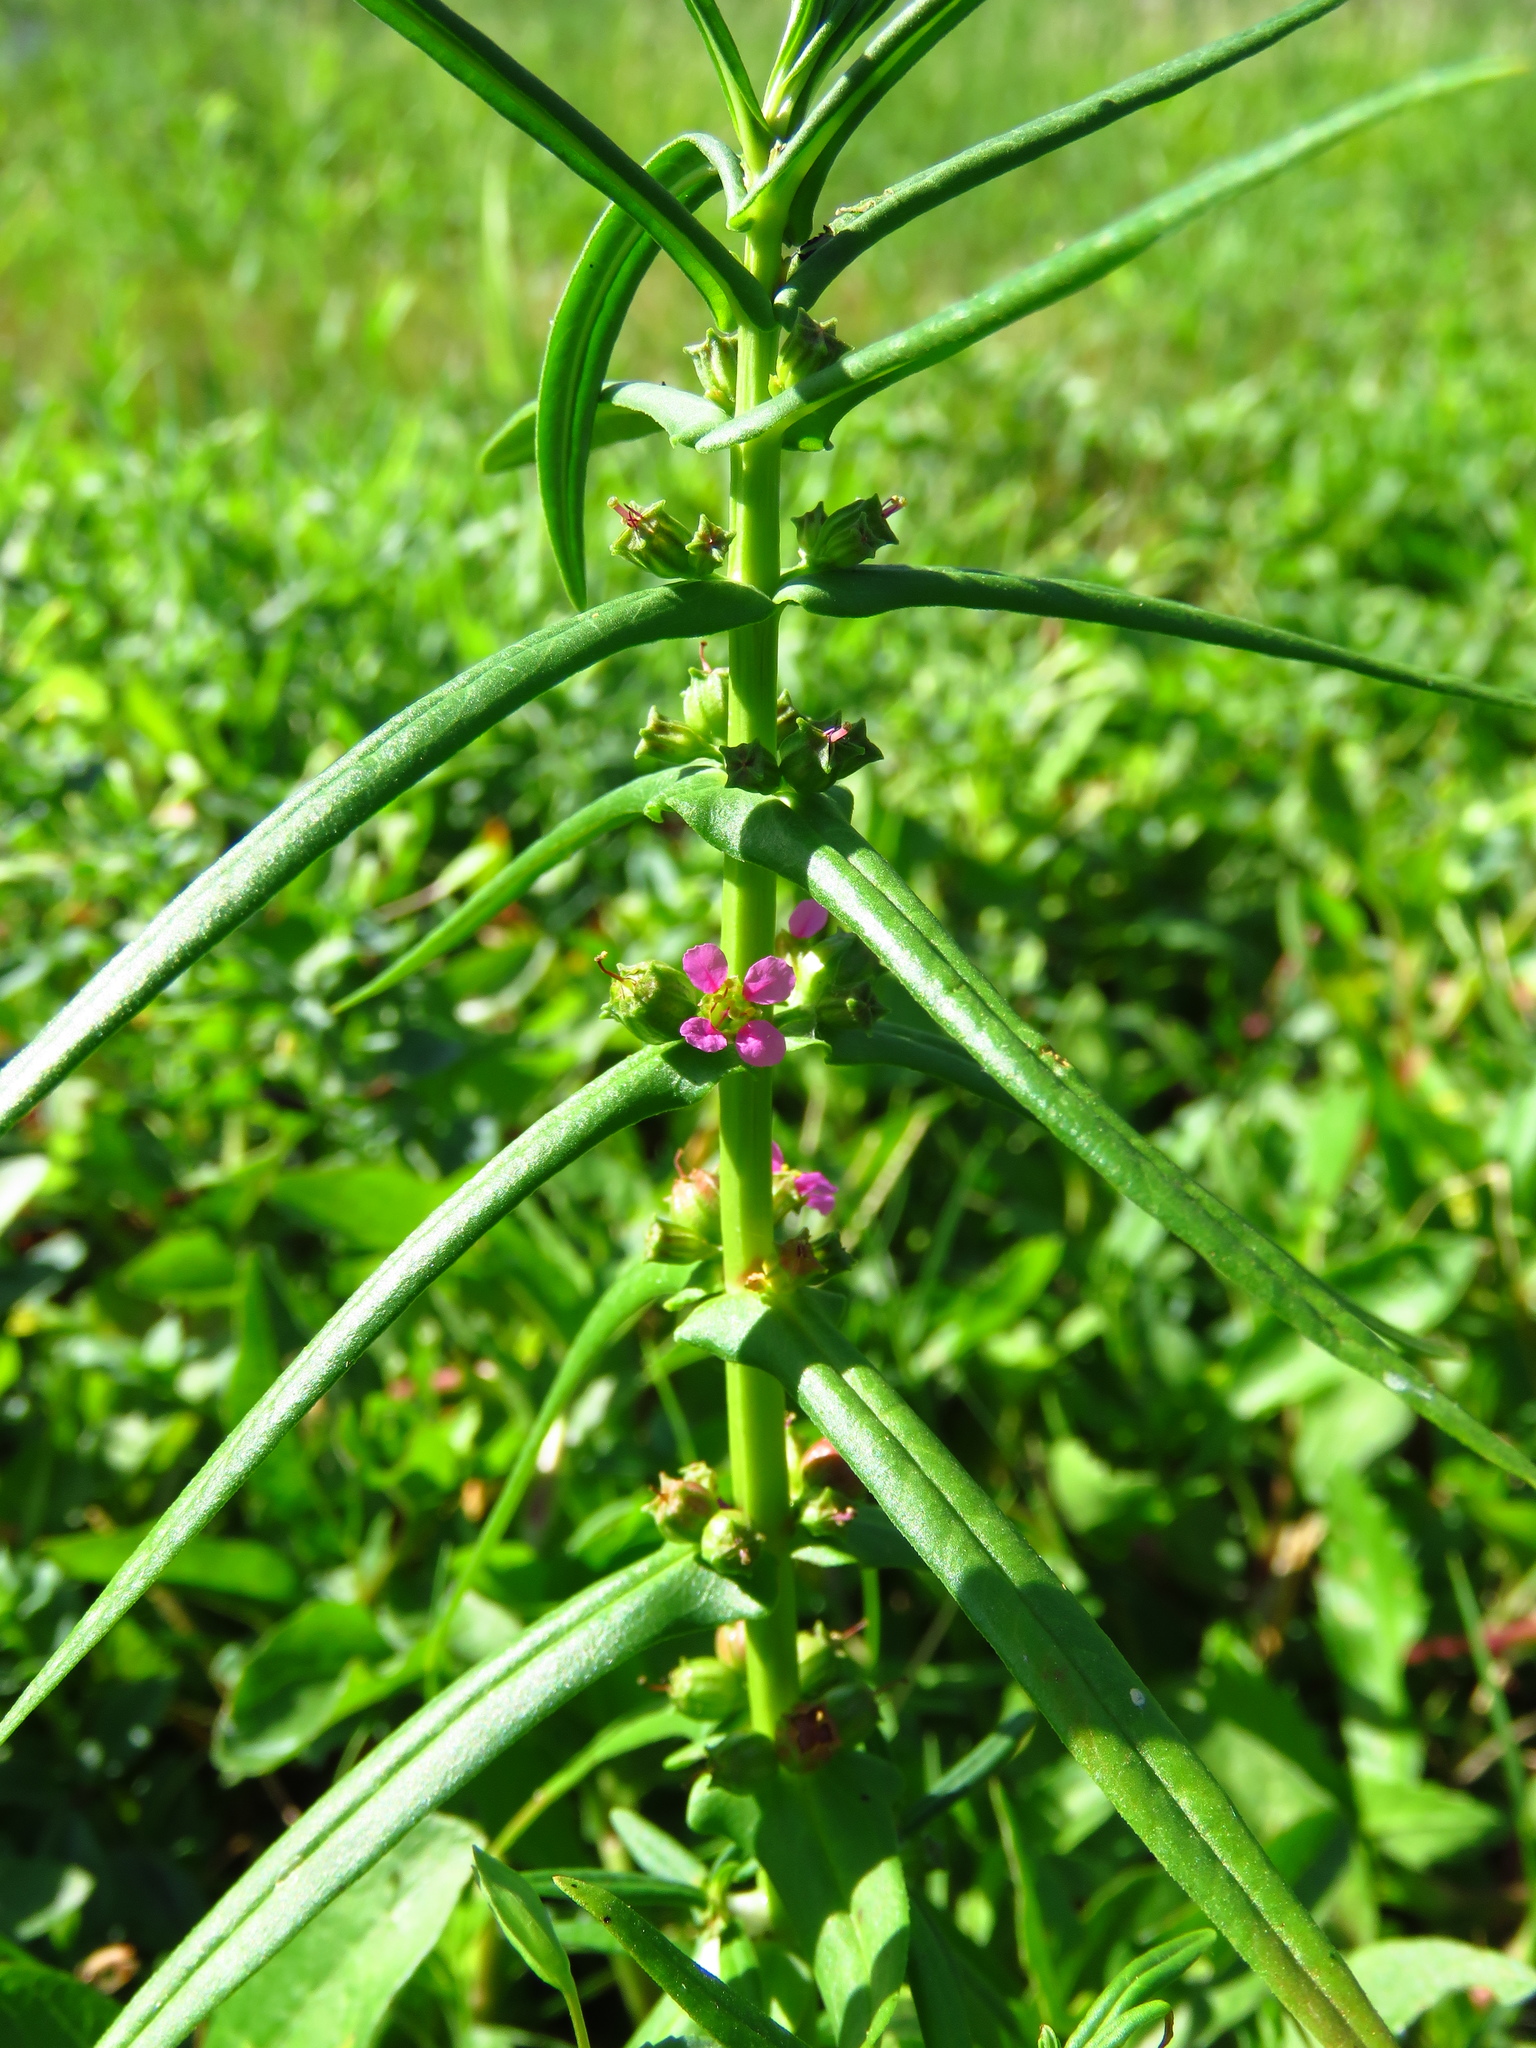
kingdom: Plantae
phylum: Tracheophyta
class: Magnoliopsida
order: Myrtales
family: Lythraceae
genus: Ammannia
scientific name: Ammannia coccinea
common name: Valley redstem
